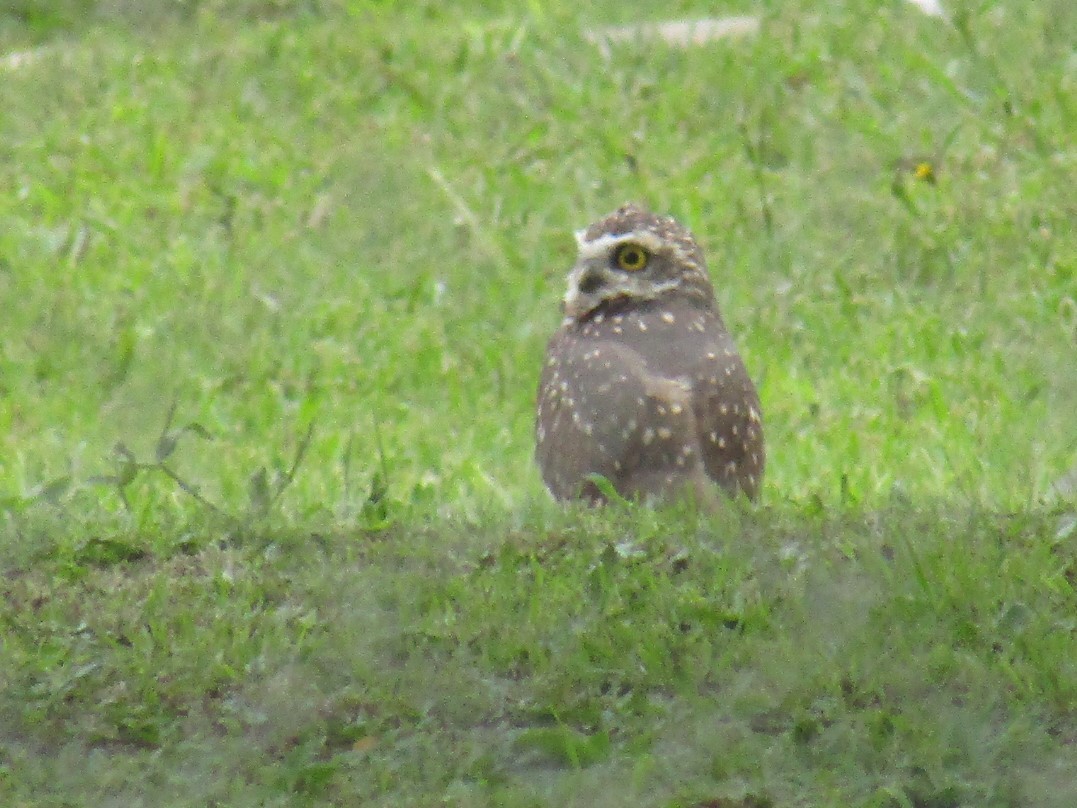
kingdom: Animalia
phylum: Chordata
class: Aves
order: Strigiformes
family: Strigidae
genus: Athene
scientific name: Athene cunicularia
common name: Burrowing owl
